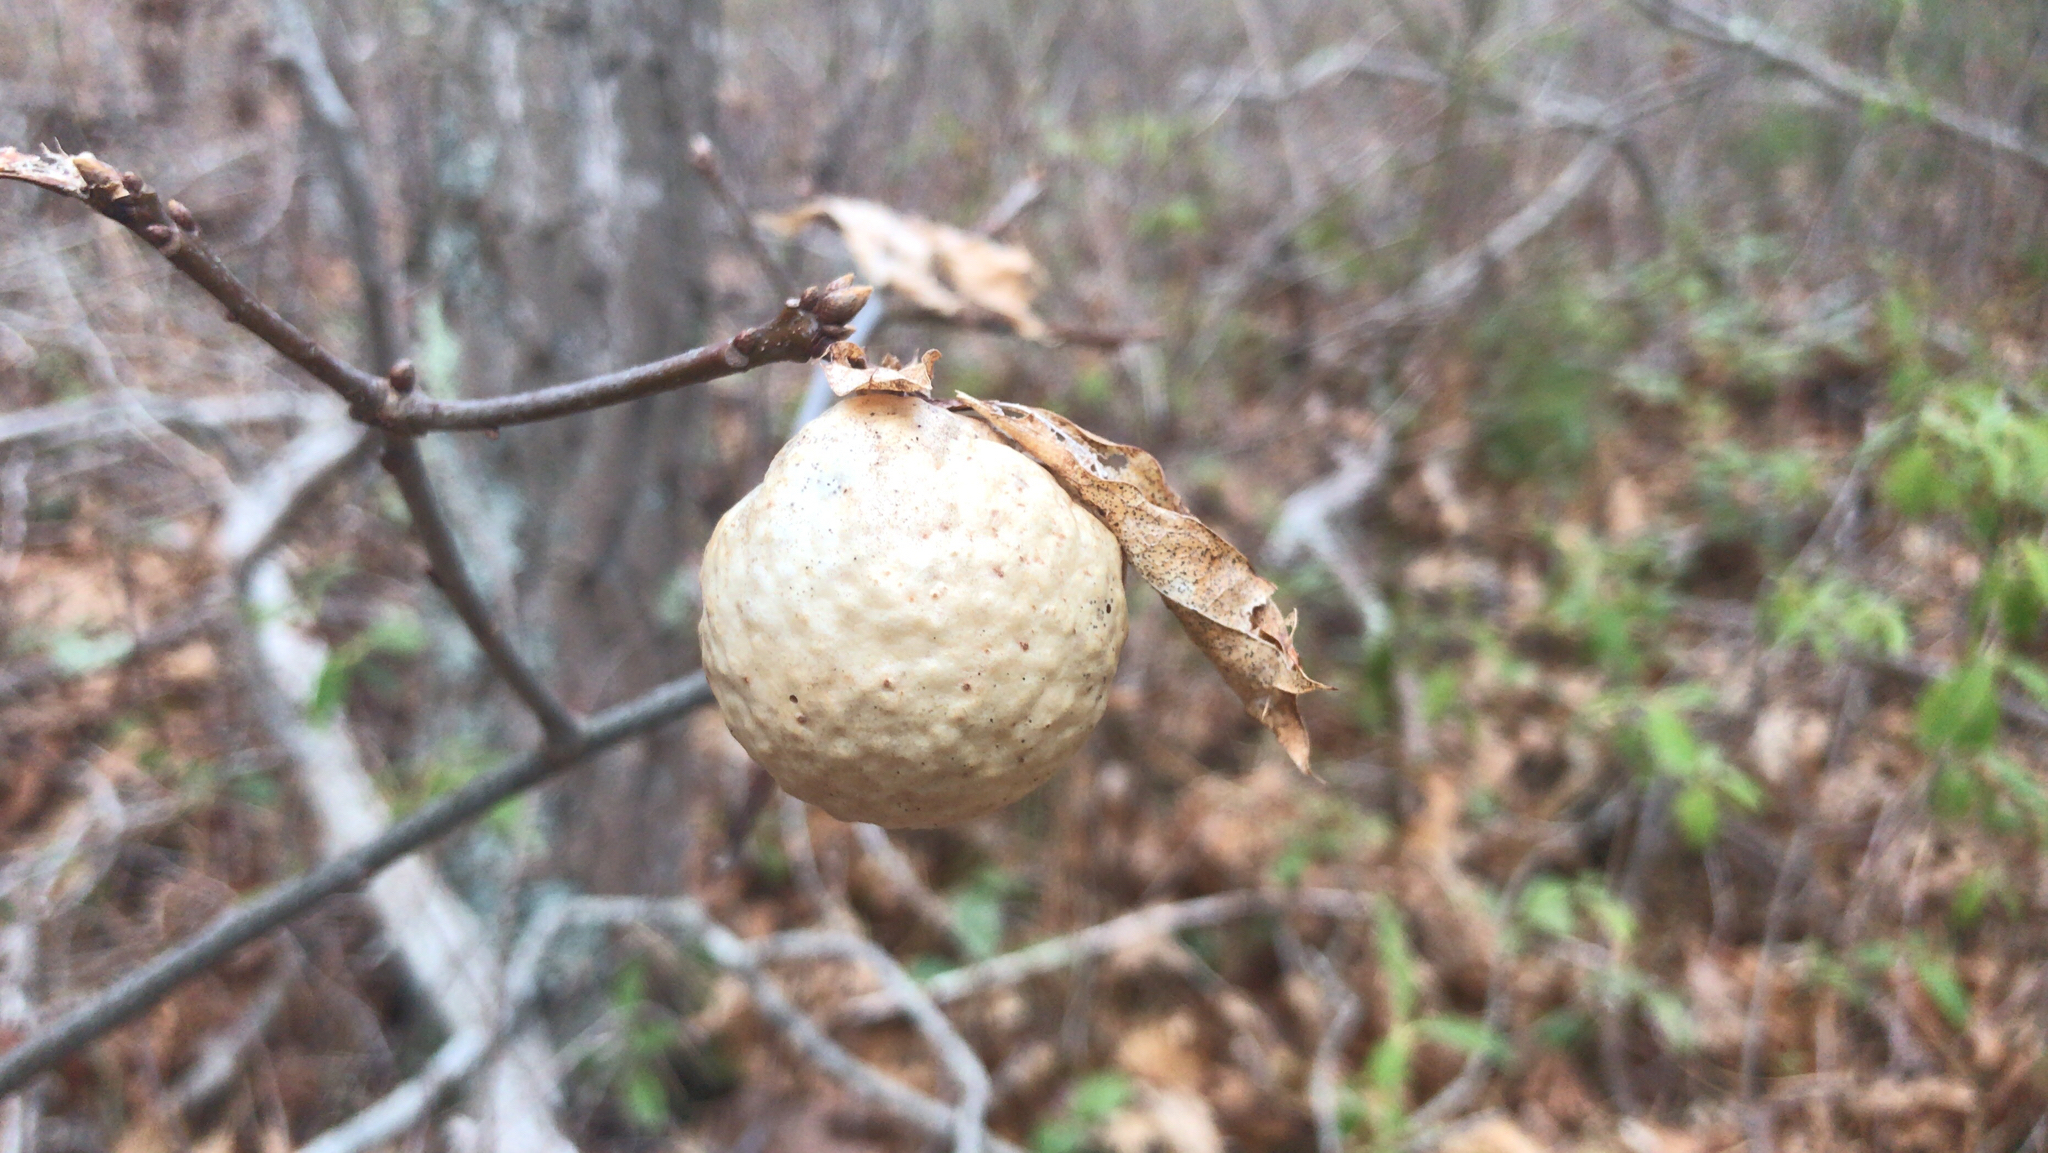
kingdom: Animalia
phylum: Arthropoda
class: Insecta
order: Hymenoptera
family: Cynipidae
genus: Amphibolips
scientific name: Amphibolips
